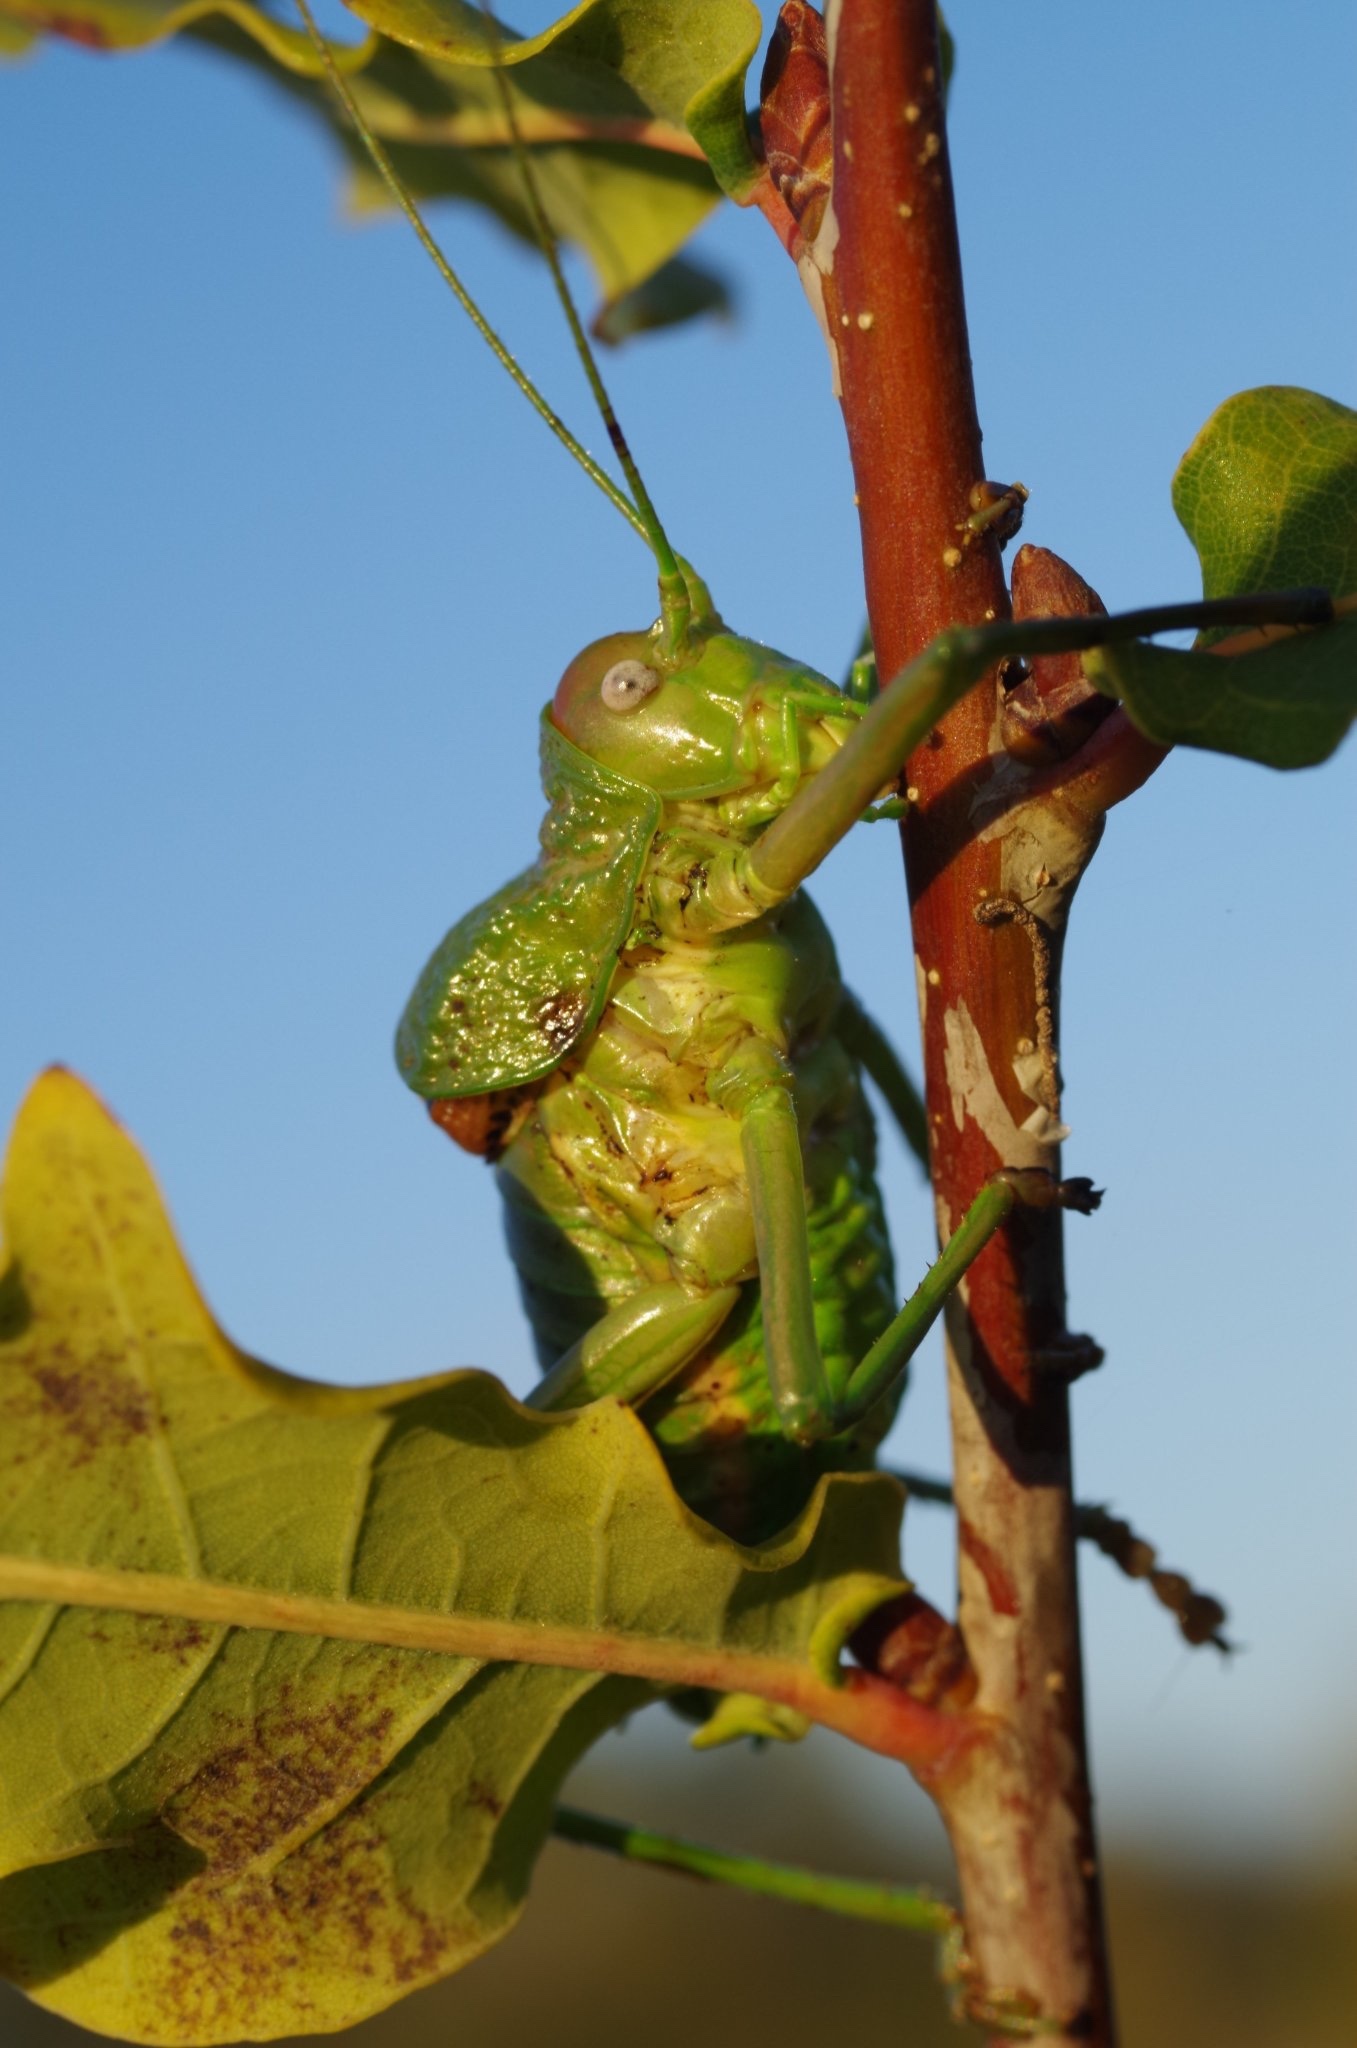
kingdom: Animalia
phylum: Arthropoda
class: Insecta
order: Orthoptera
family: Tettigoniidae
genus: Uromenus
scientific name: Uromenus rugosicollis
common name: Rough saddle bush-cricket
